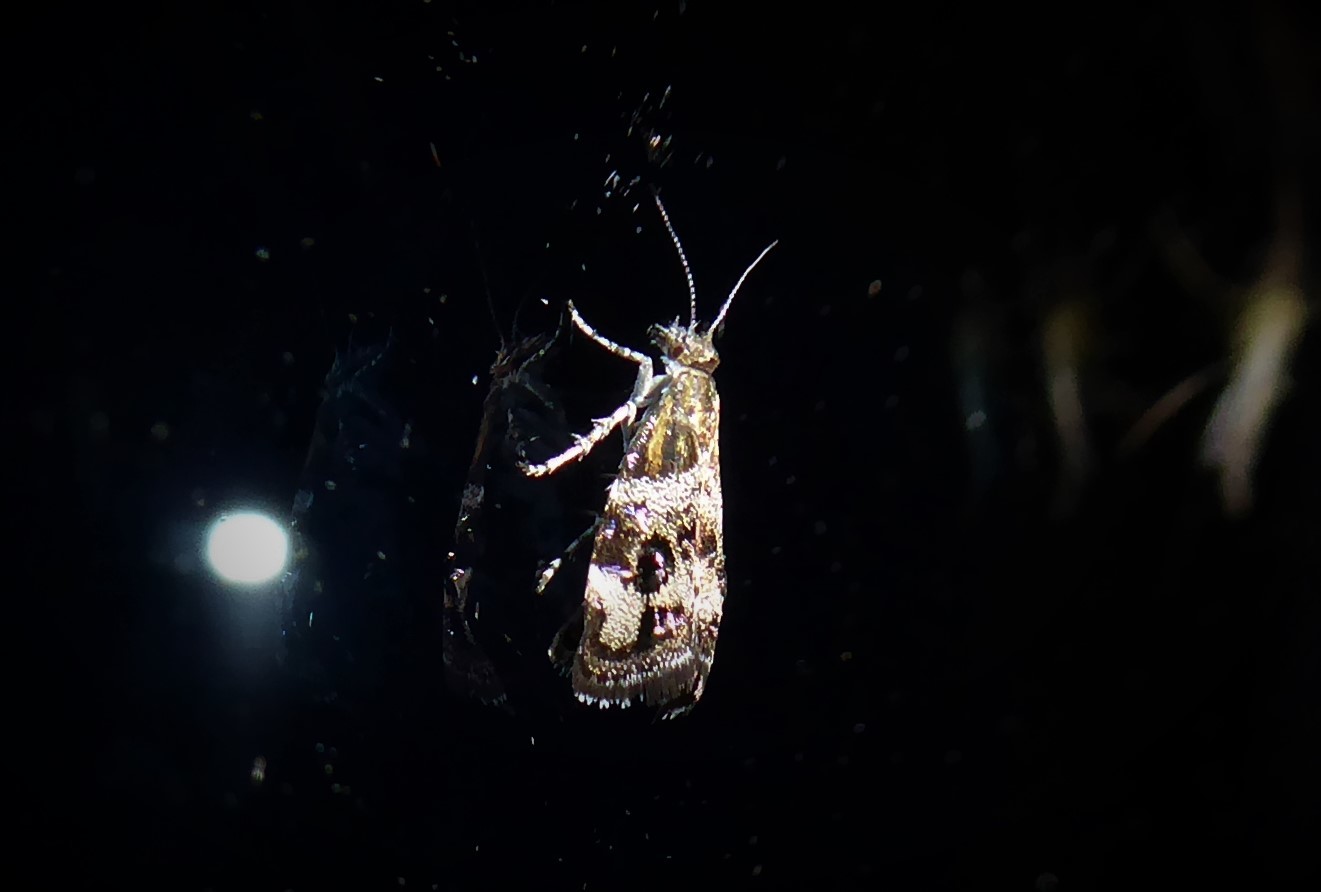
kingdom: Animalia
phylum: Arthropoda
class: Insecta
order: Lepidoptera
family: Choreutidae
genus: Tebenna
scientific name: Tebenna micalis
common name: Vagrant twitcher
